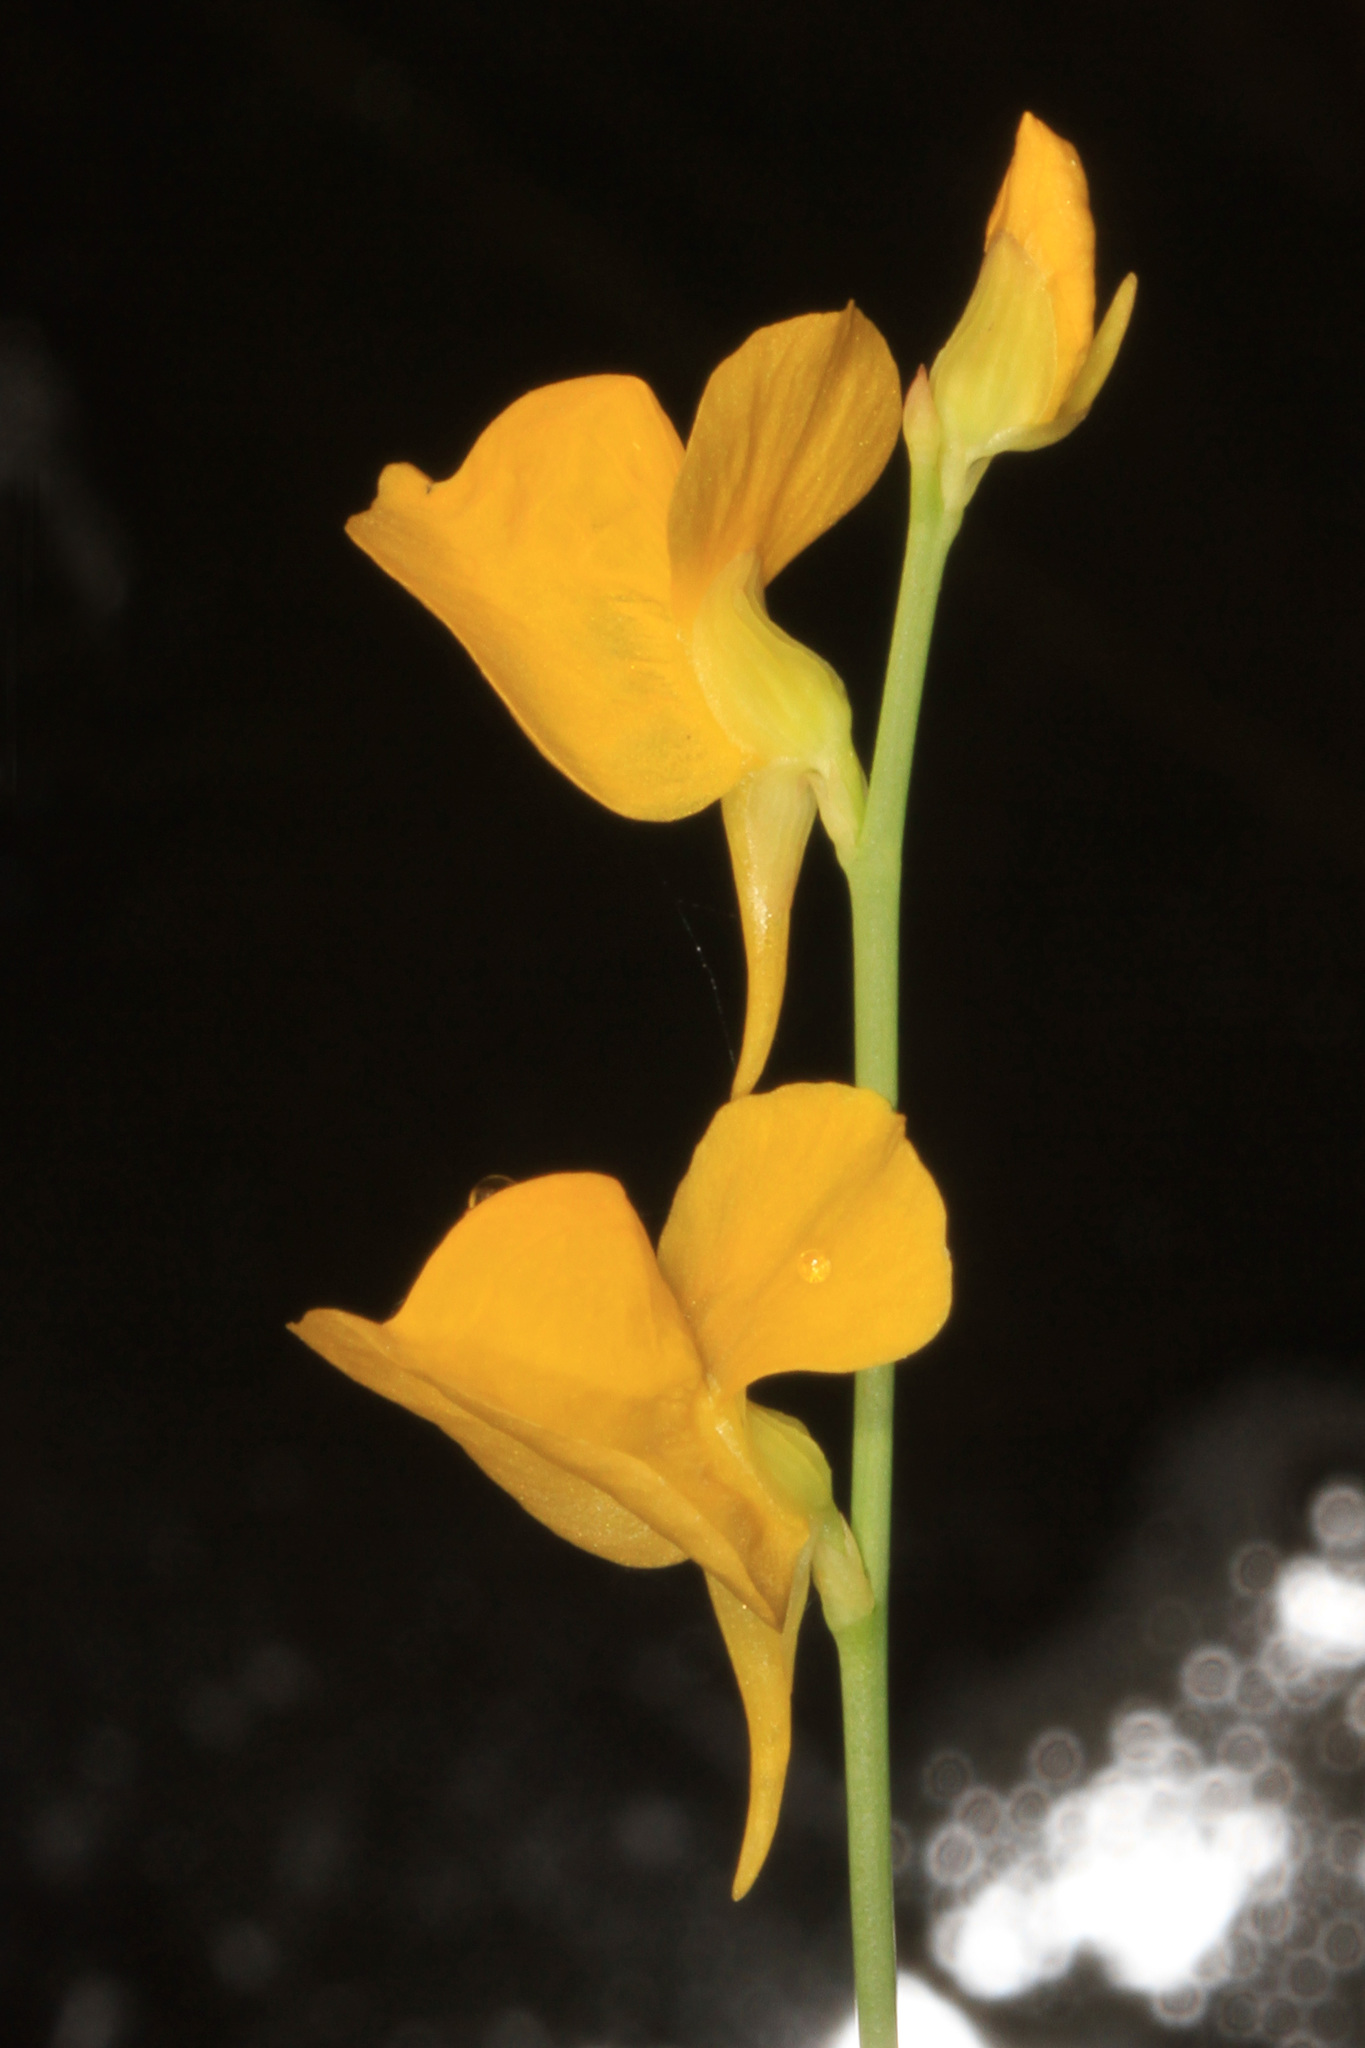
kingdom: Plantae
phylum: Tracheophyta
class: Magnoliopsida
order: Lamiales
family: Lentibulariaceae
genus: Utricularia
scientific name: Utricularia cornuta
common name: Horned bladderwort
